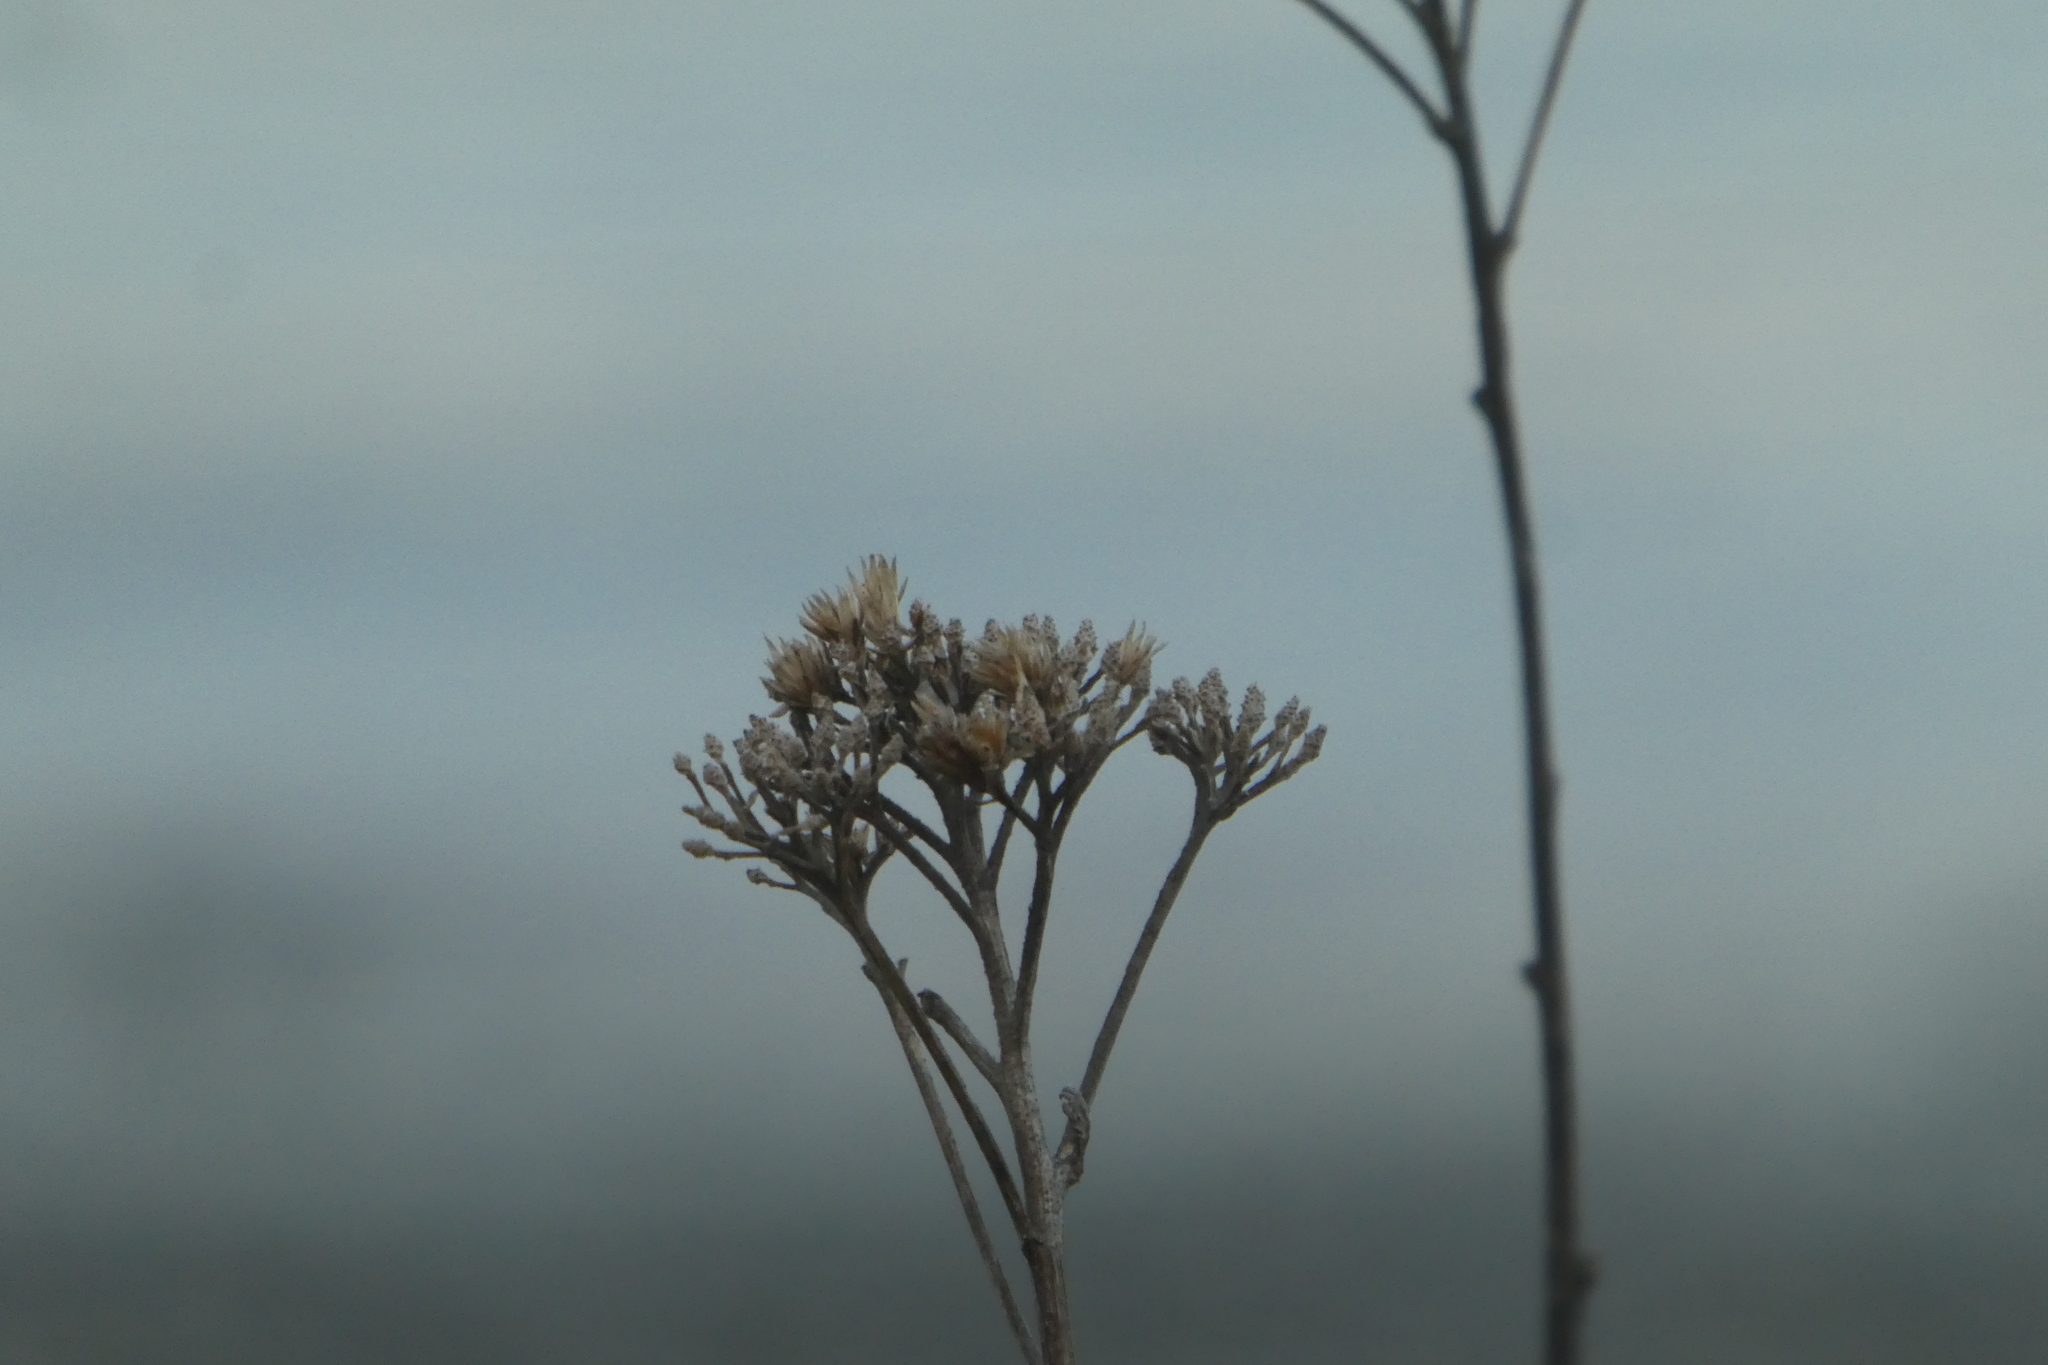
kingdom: Plantae
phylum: Tracheophyta
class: Magnoliopsida
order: Asterales
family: Asteraceae
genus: Achillea
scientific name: Achillea millefolium
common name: Yarrow
